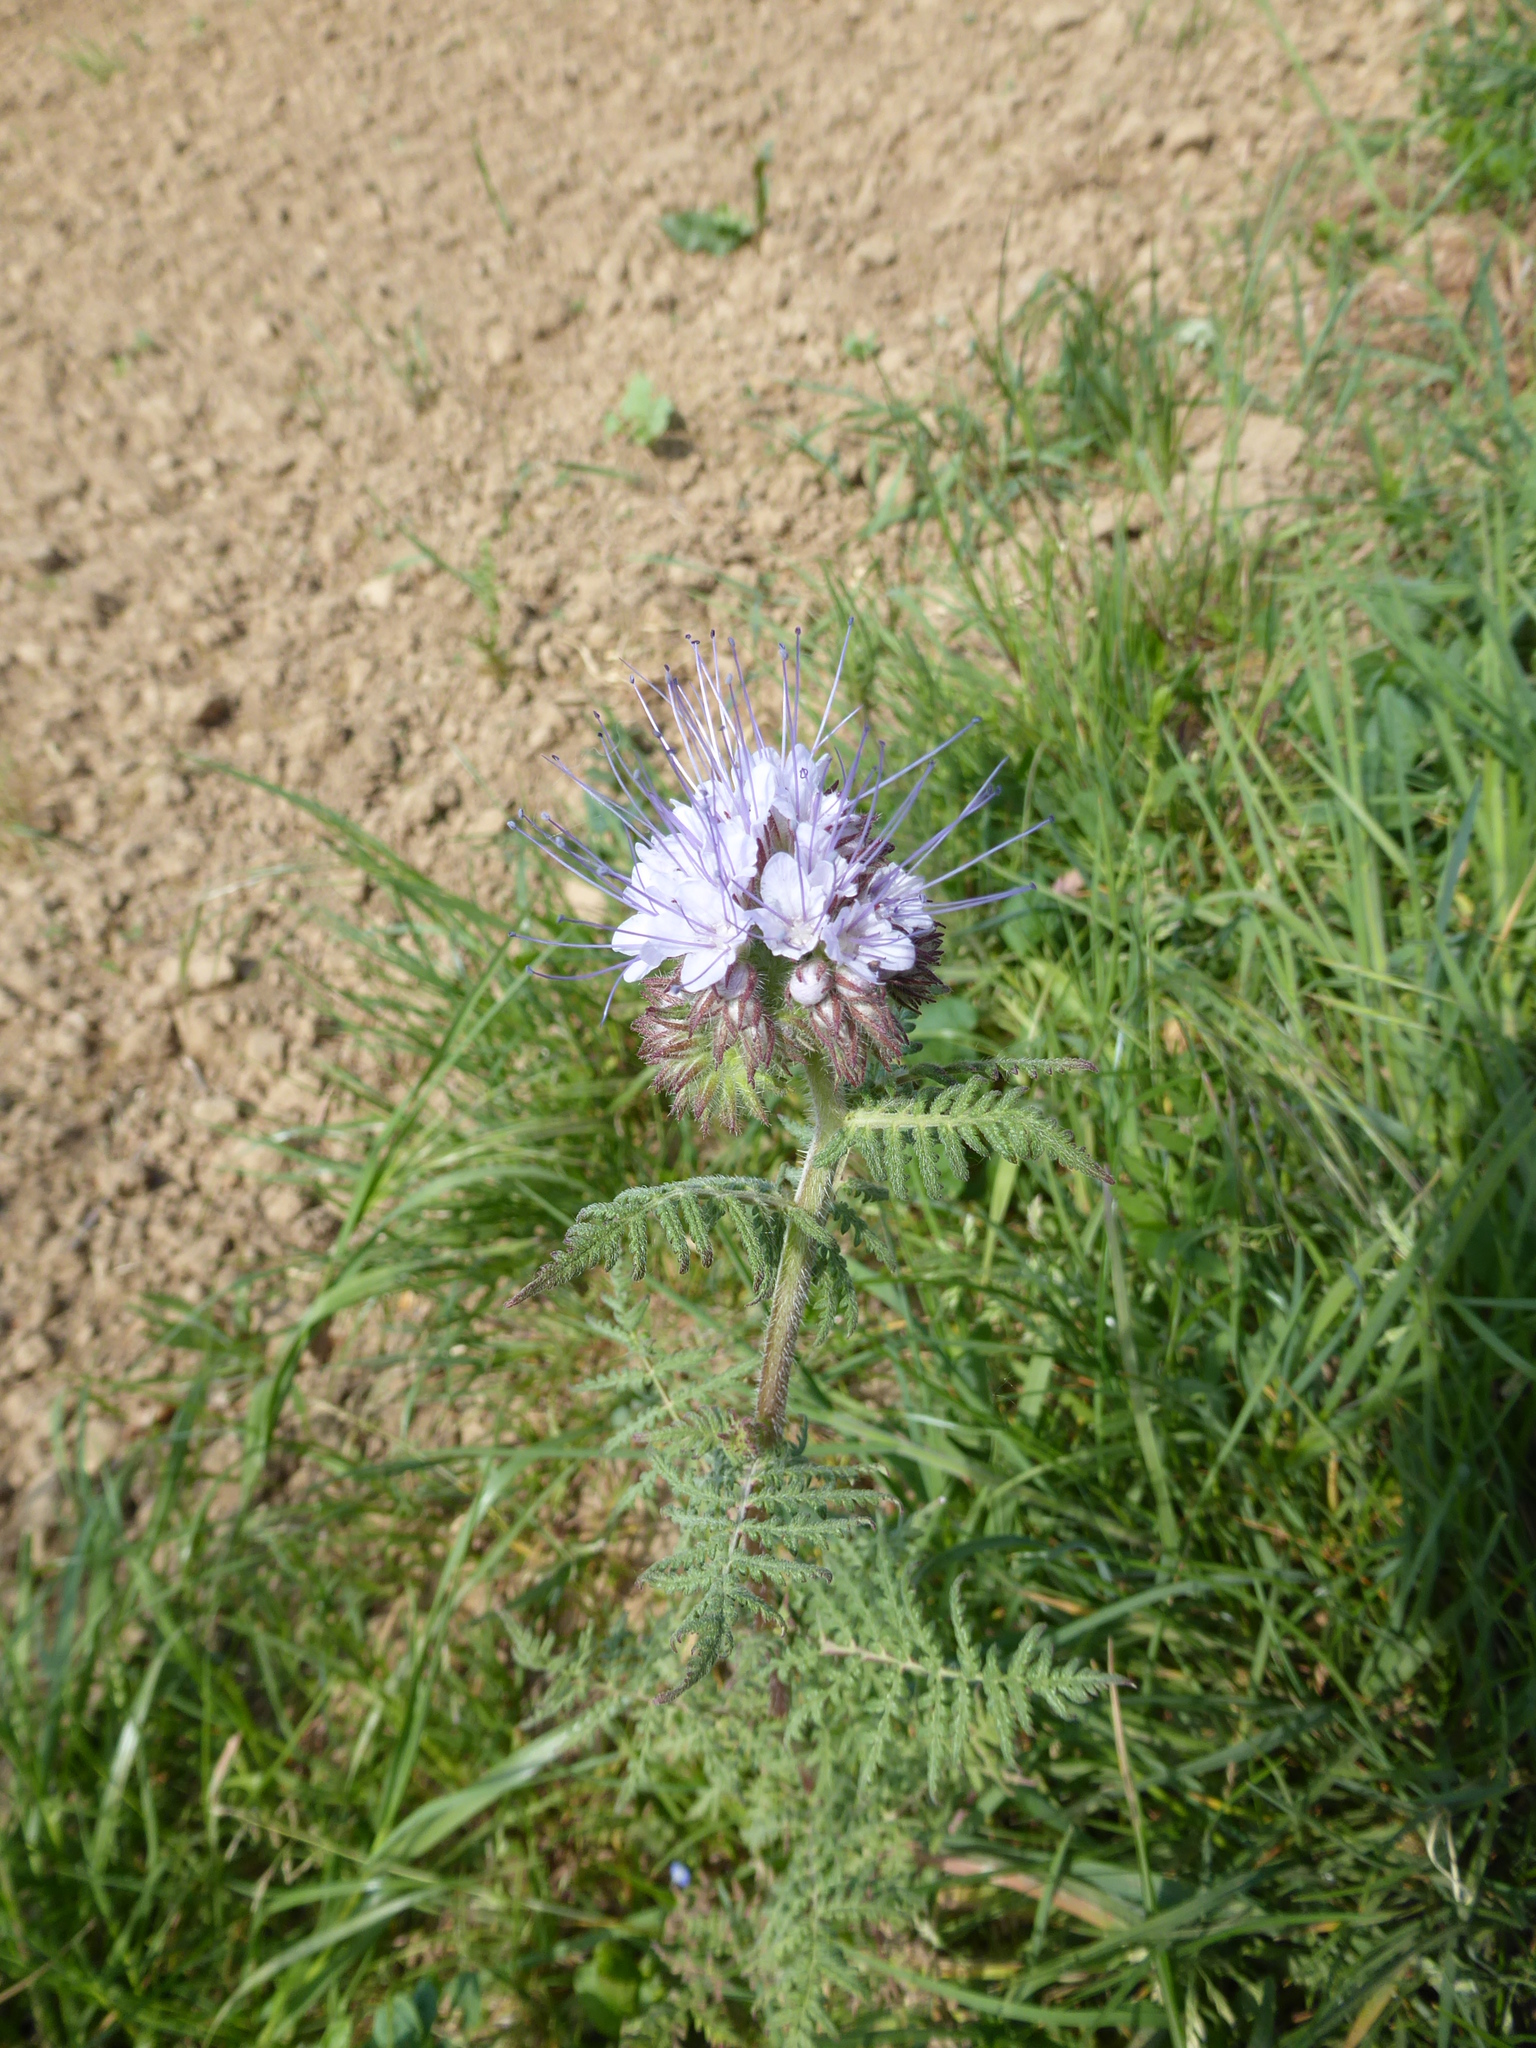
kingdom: Plantae
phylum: Tracheophyta
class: Magnoliopsida
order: Boraginales
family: Hydrophyllaceae
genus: Phacelia
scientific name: Phacelia tanacetifolia
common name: Phacelia
